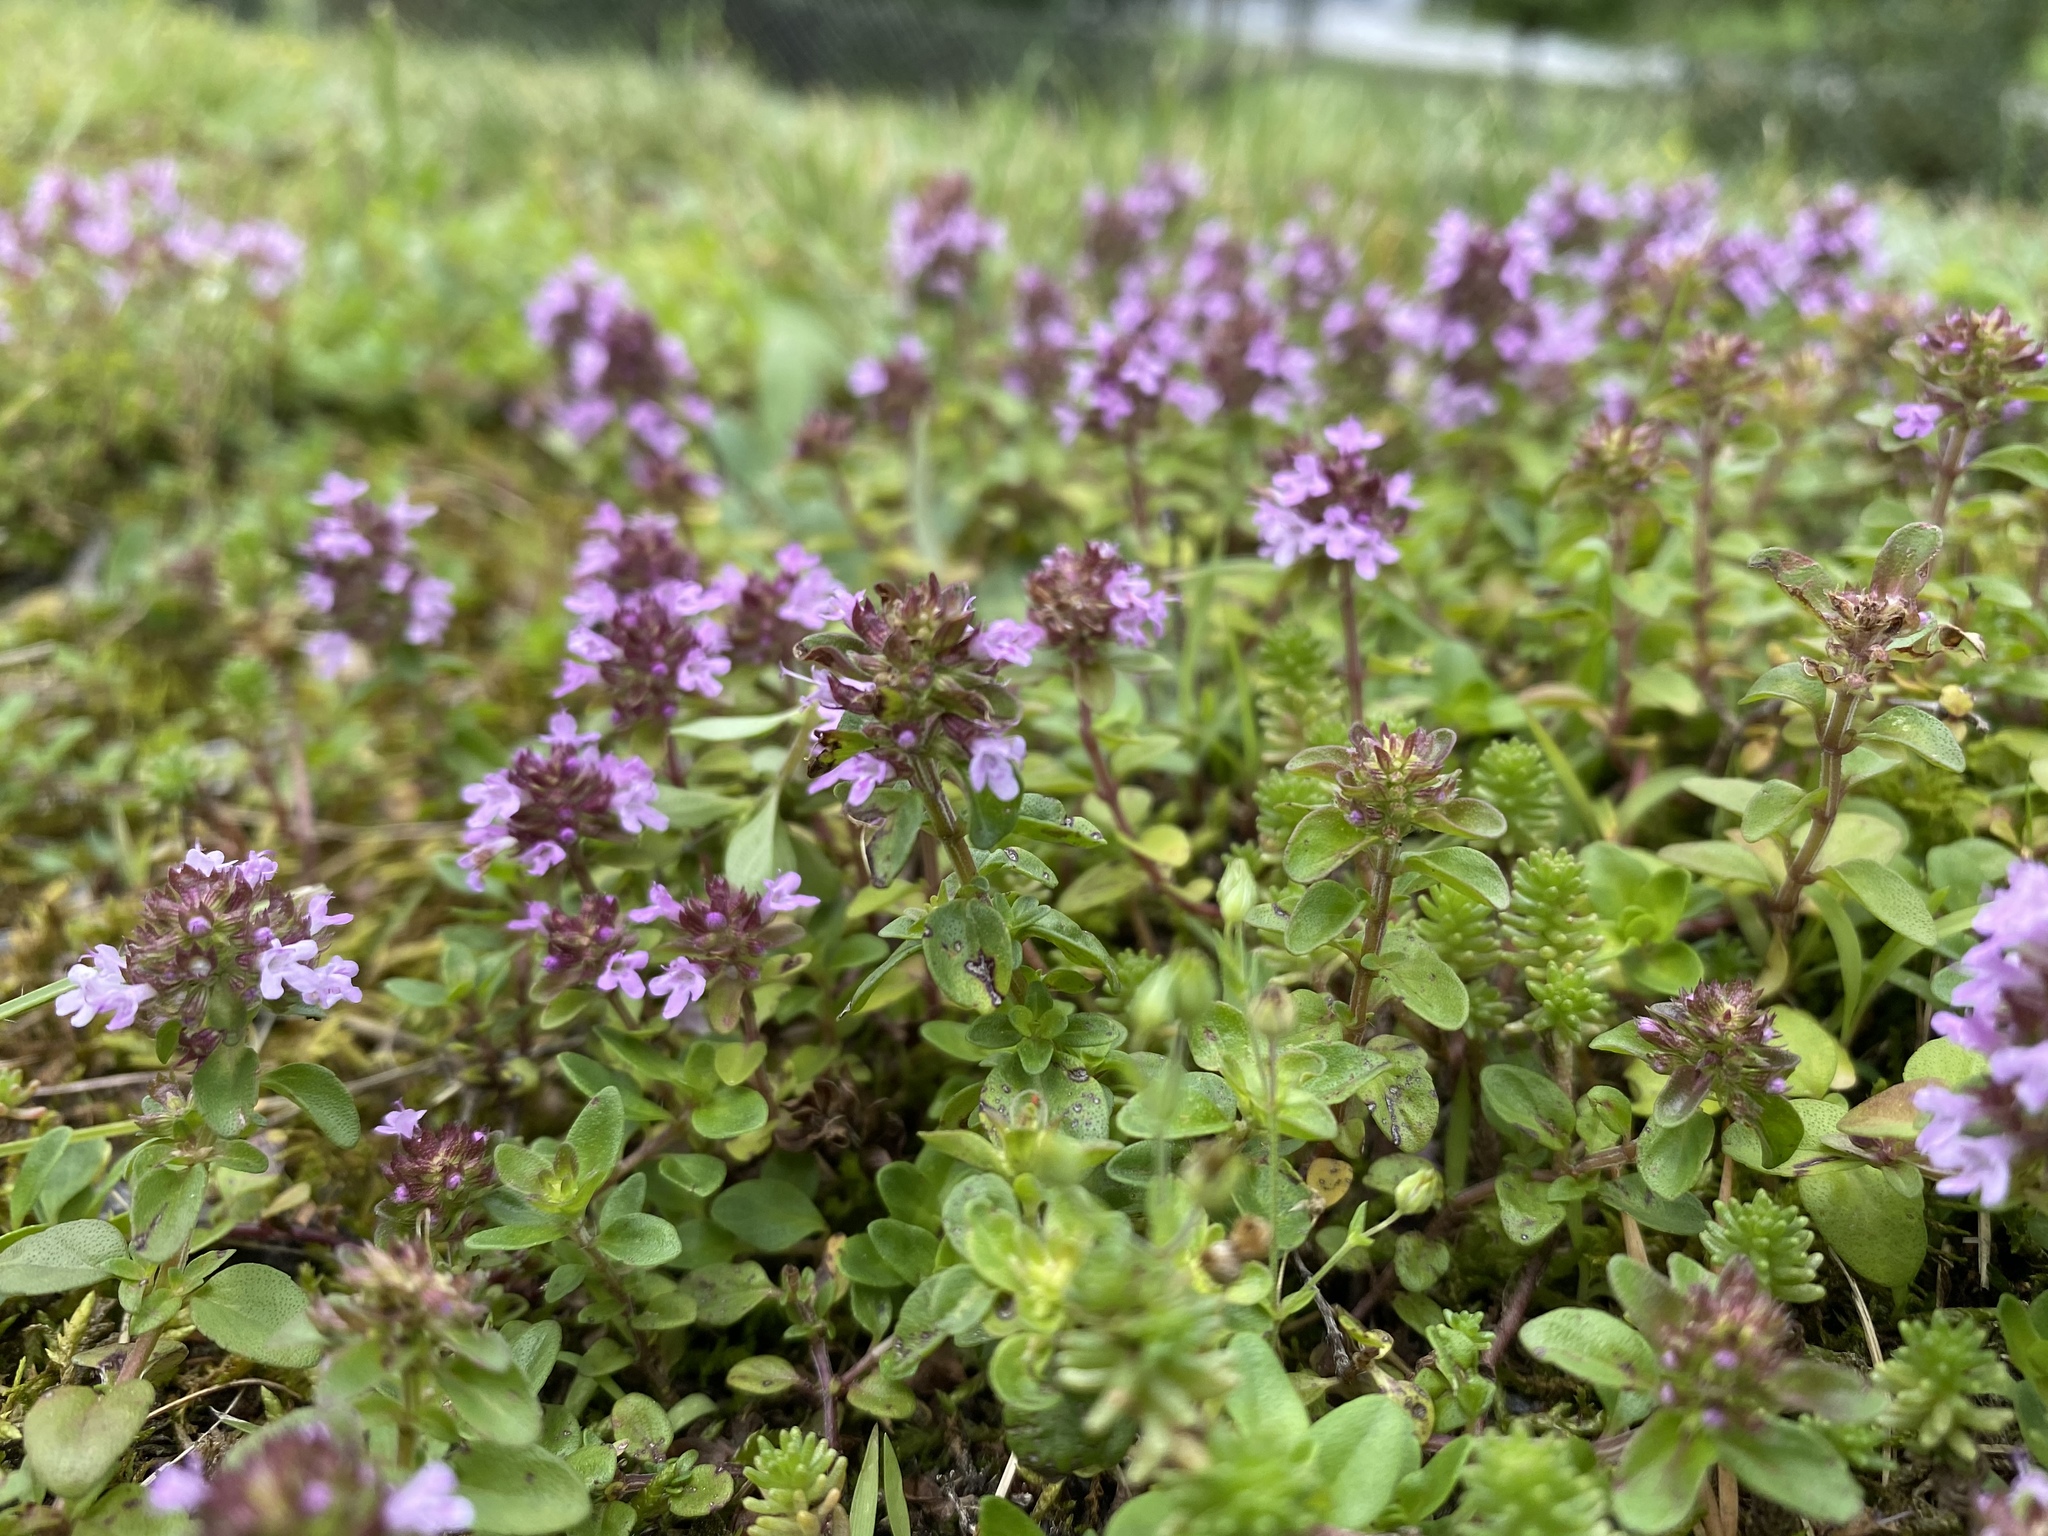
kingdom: Plantae
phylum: Tracheophyta
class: Magnoliopsida
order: Lamiales
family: Lamiaceae
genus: Thymus
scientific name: Thymus pulegioides
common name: Large thyme
